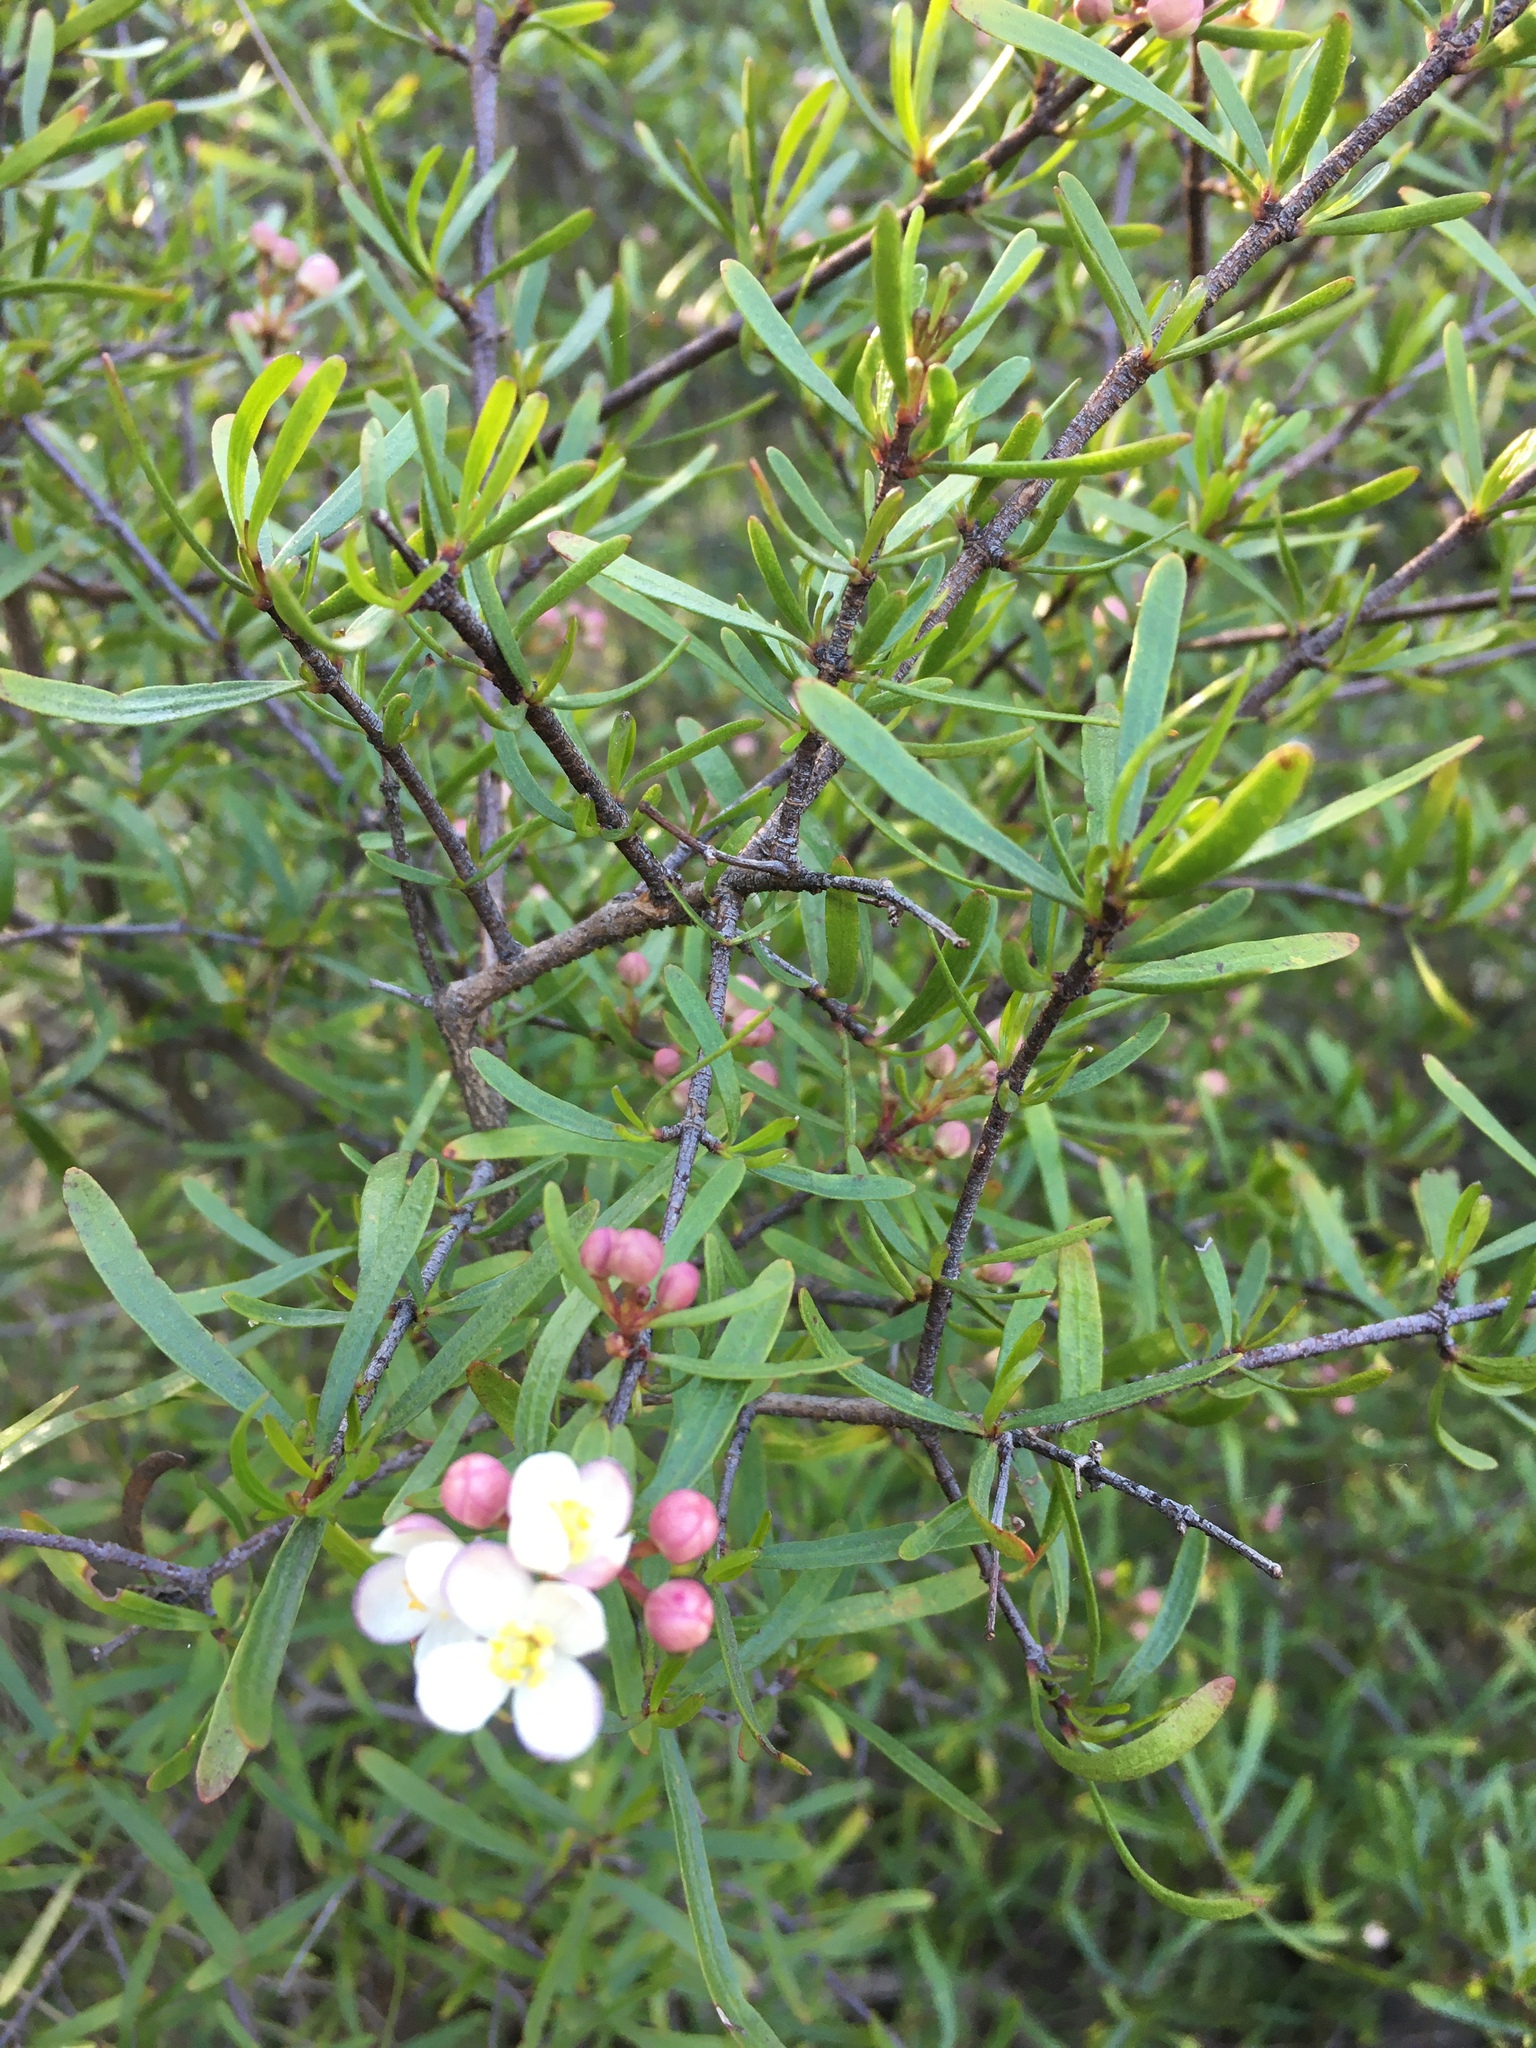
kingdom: Plantae
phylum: Tracheophyta
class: Magnoliopsida
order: Sapindales
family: Rutaceae
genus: Cneoridium
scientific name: Cneoridium dumosum
